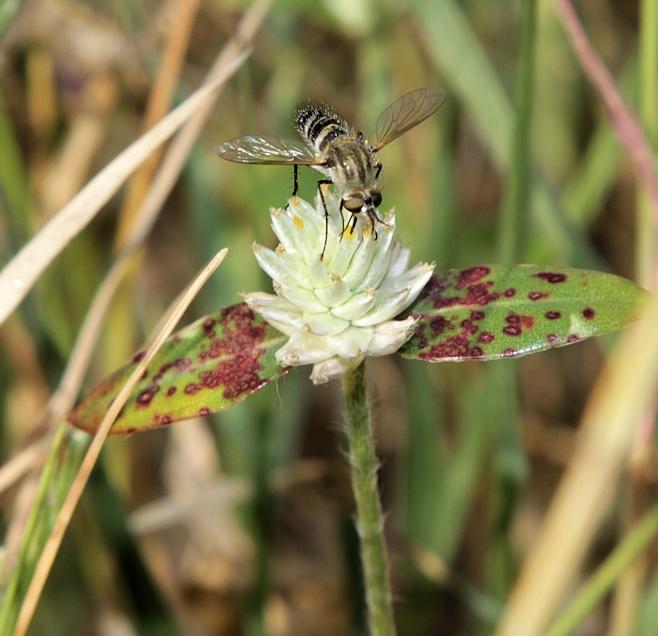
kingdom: Plantae
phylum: Tracheophyta
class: Magnoliopsida
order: Caryophyllales
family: Amaranthaceae
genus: Gomphrena
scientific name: Gomphrena celosioides
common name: Gomphrena-weed
